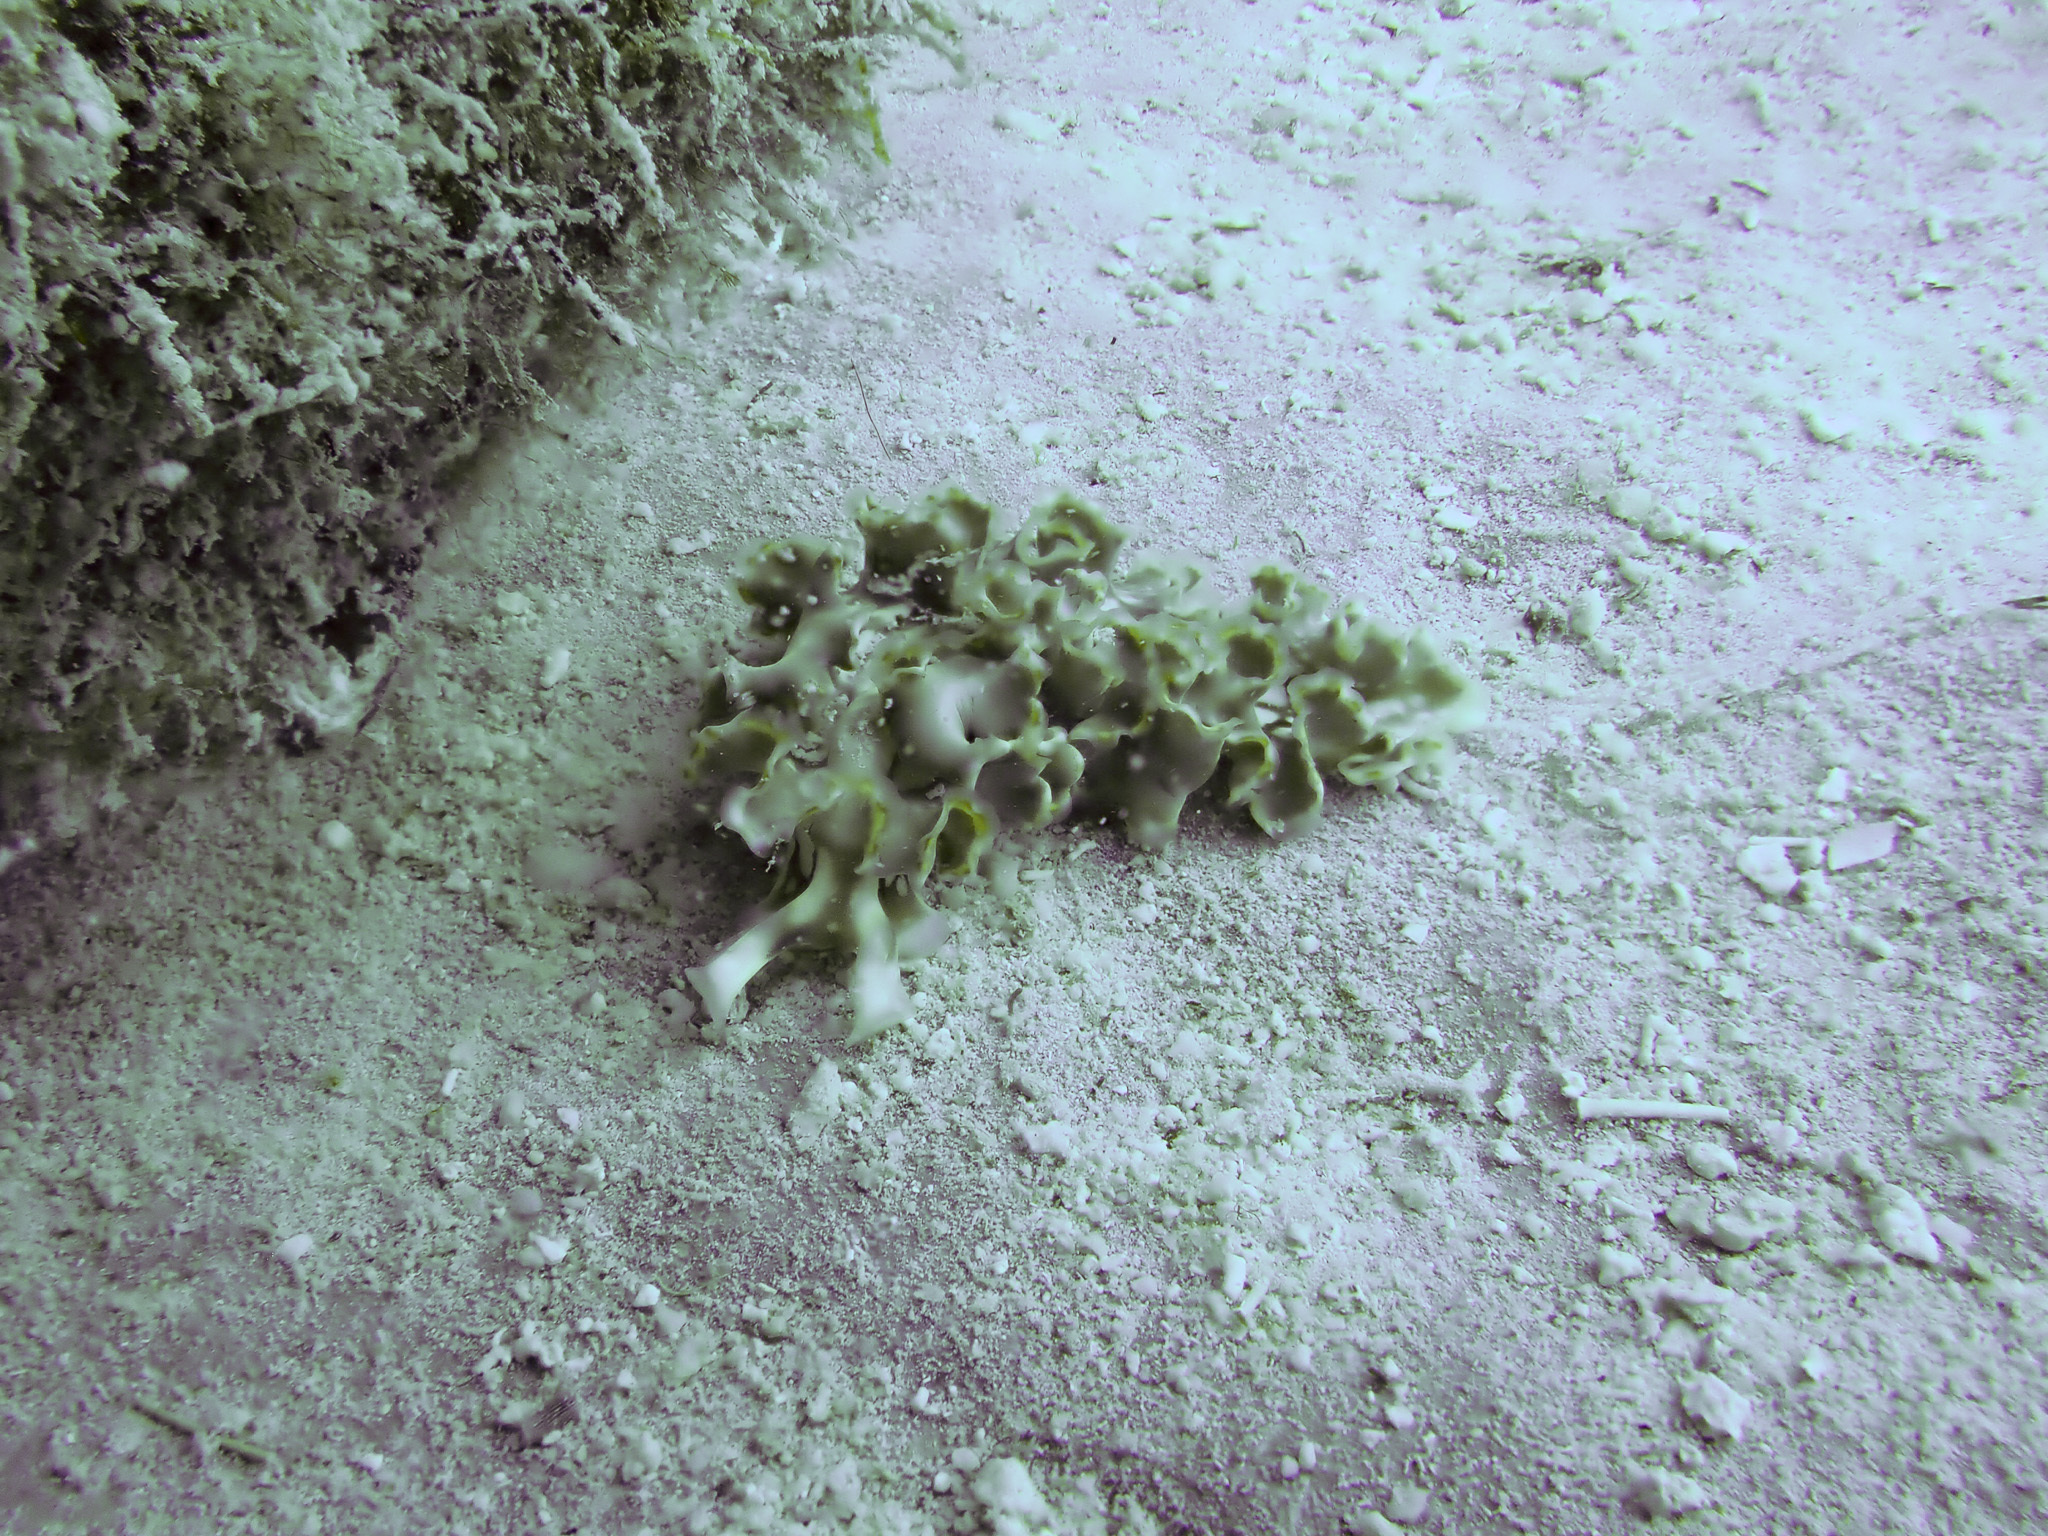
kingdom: Animalia
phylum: Mollusca
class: Gastropoda
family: Plakobranchidae
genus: Elysia
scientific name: Elysia crispata
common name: Lettuce slug
